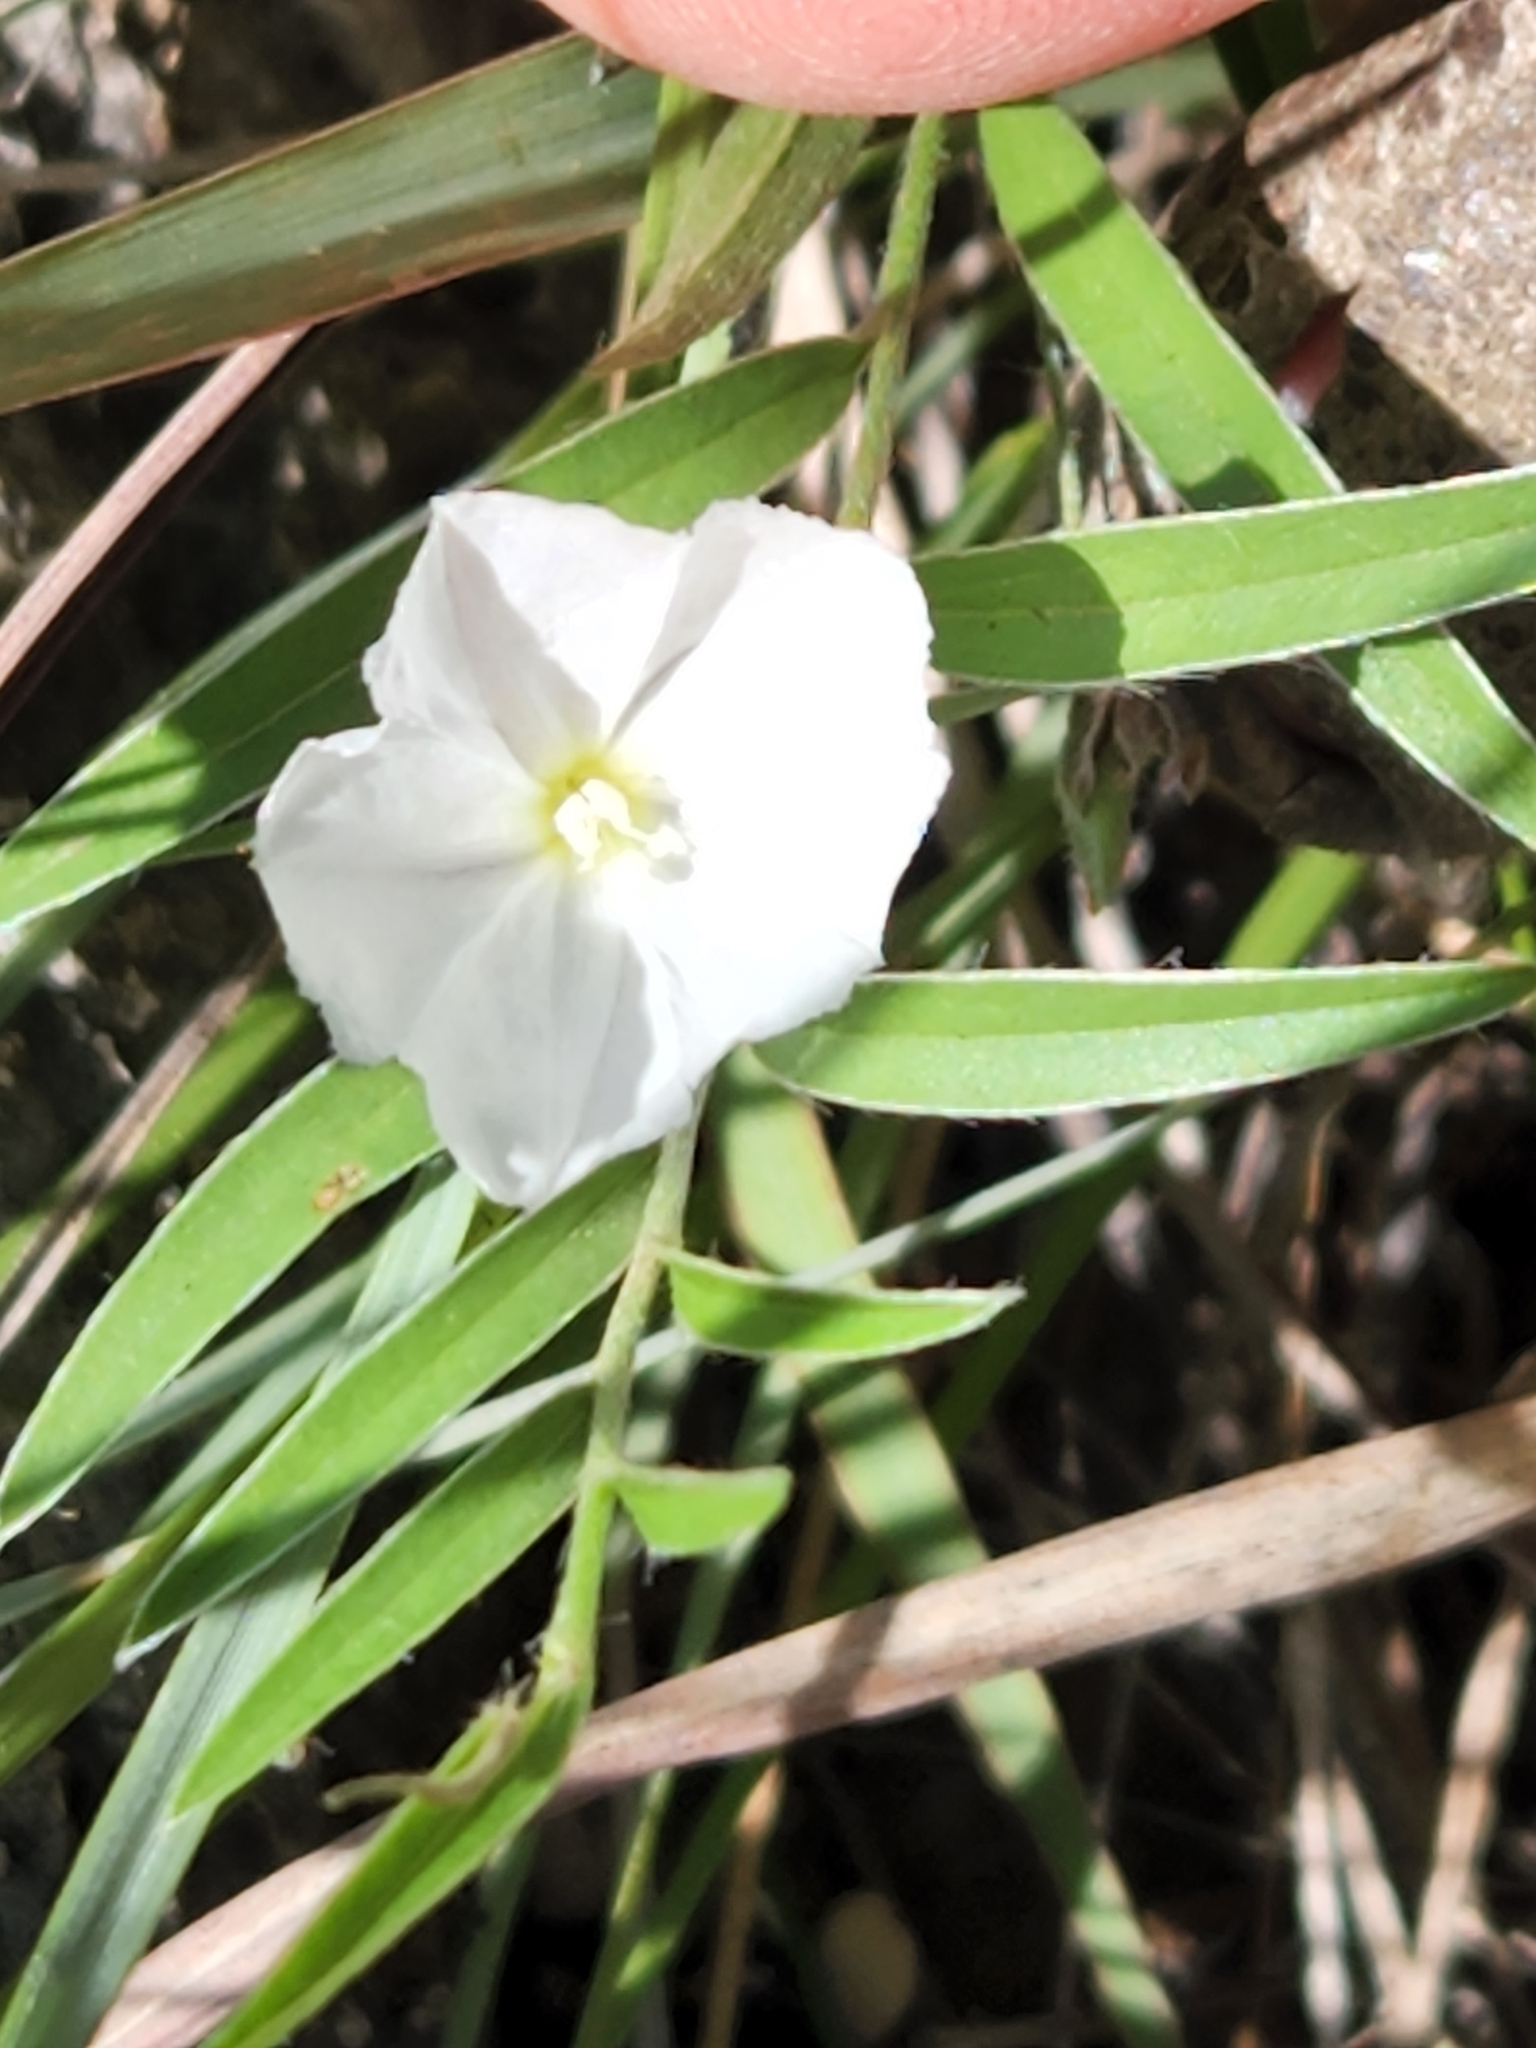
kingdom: Plantae
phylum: Tracheophyta
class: Magnoliopsida
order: Solanales
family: Convolvulaceae
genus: Evolvulus
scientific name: Evolvulus sericeus
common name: Blue dots
